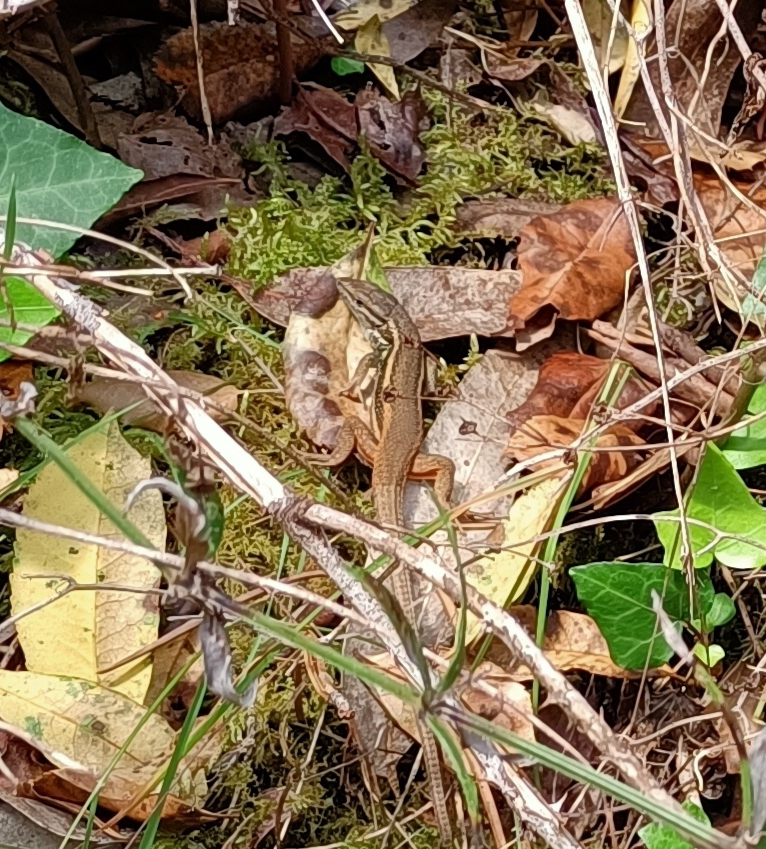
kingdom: Animalia
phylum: Chordata
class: Squamata
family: Lacertidae
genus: Psammodromus
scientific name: Psammodromus algirus
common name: Algerian psammodromus
